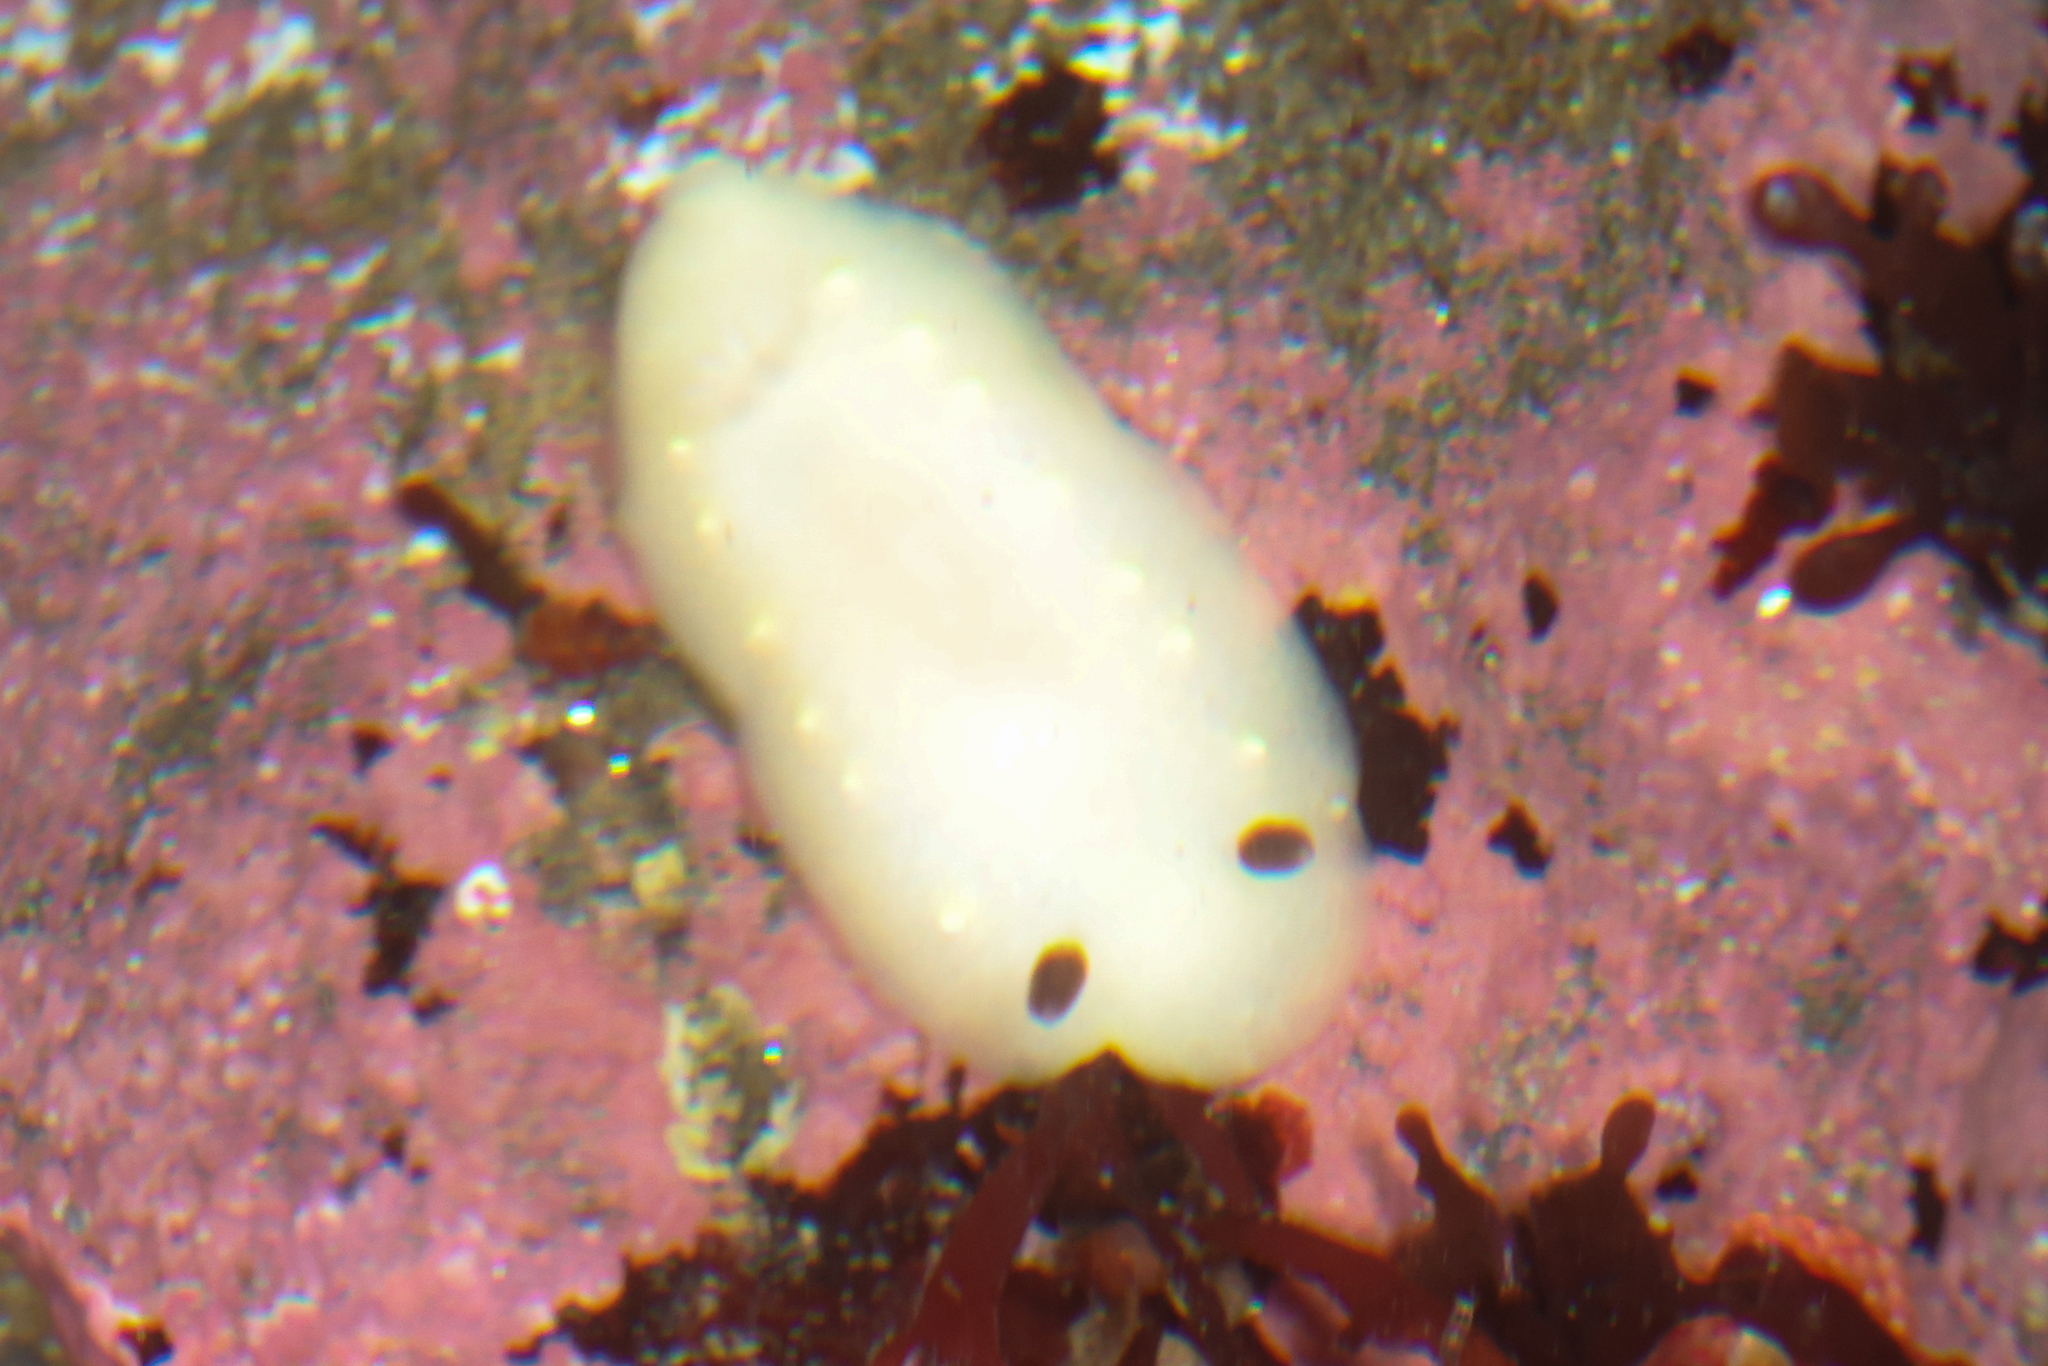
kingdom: Animalia
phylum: Mollusca
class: Gastropoda
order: Nudibranchia
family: Cadlinidae
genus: Cadlina
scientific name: Cadlina flavomaculata
